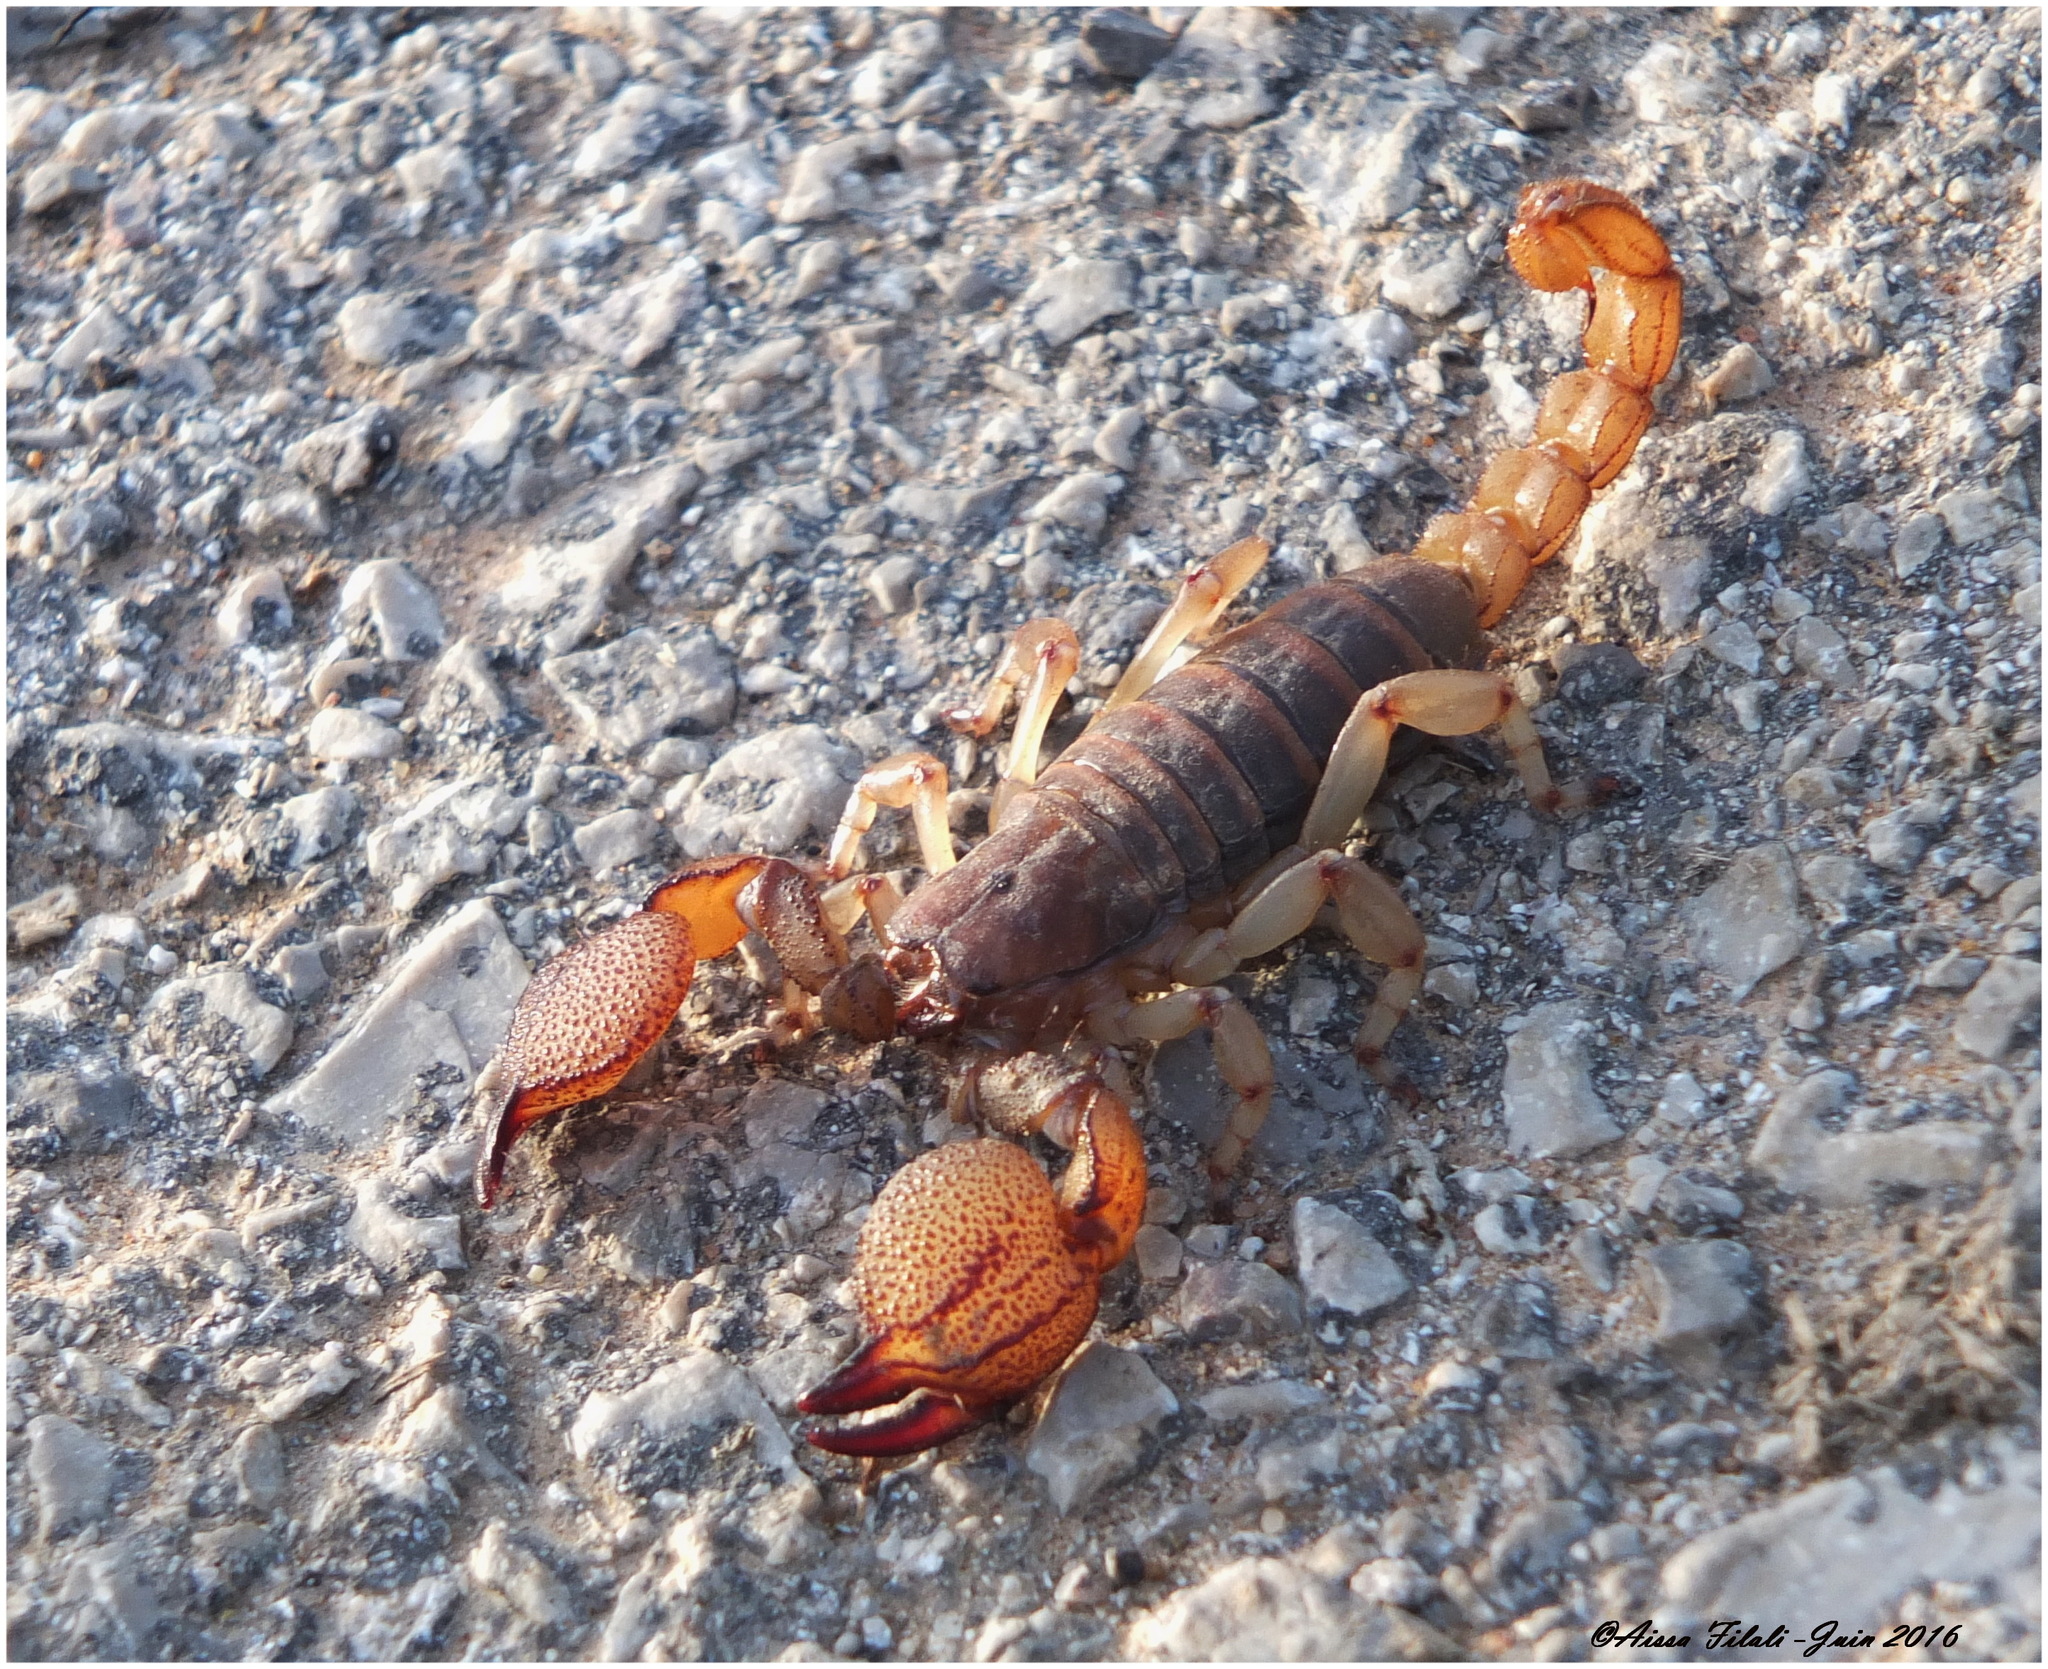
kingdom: Animalia
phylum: Arthropoda
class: Arachnida
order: Scorpiones
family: Scorpionidae
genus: Scorpio
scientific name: Scorpio maurus
